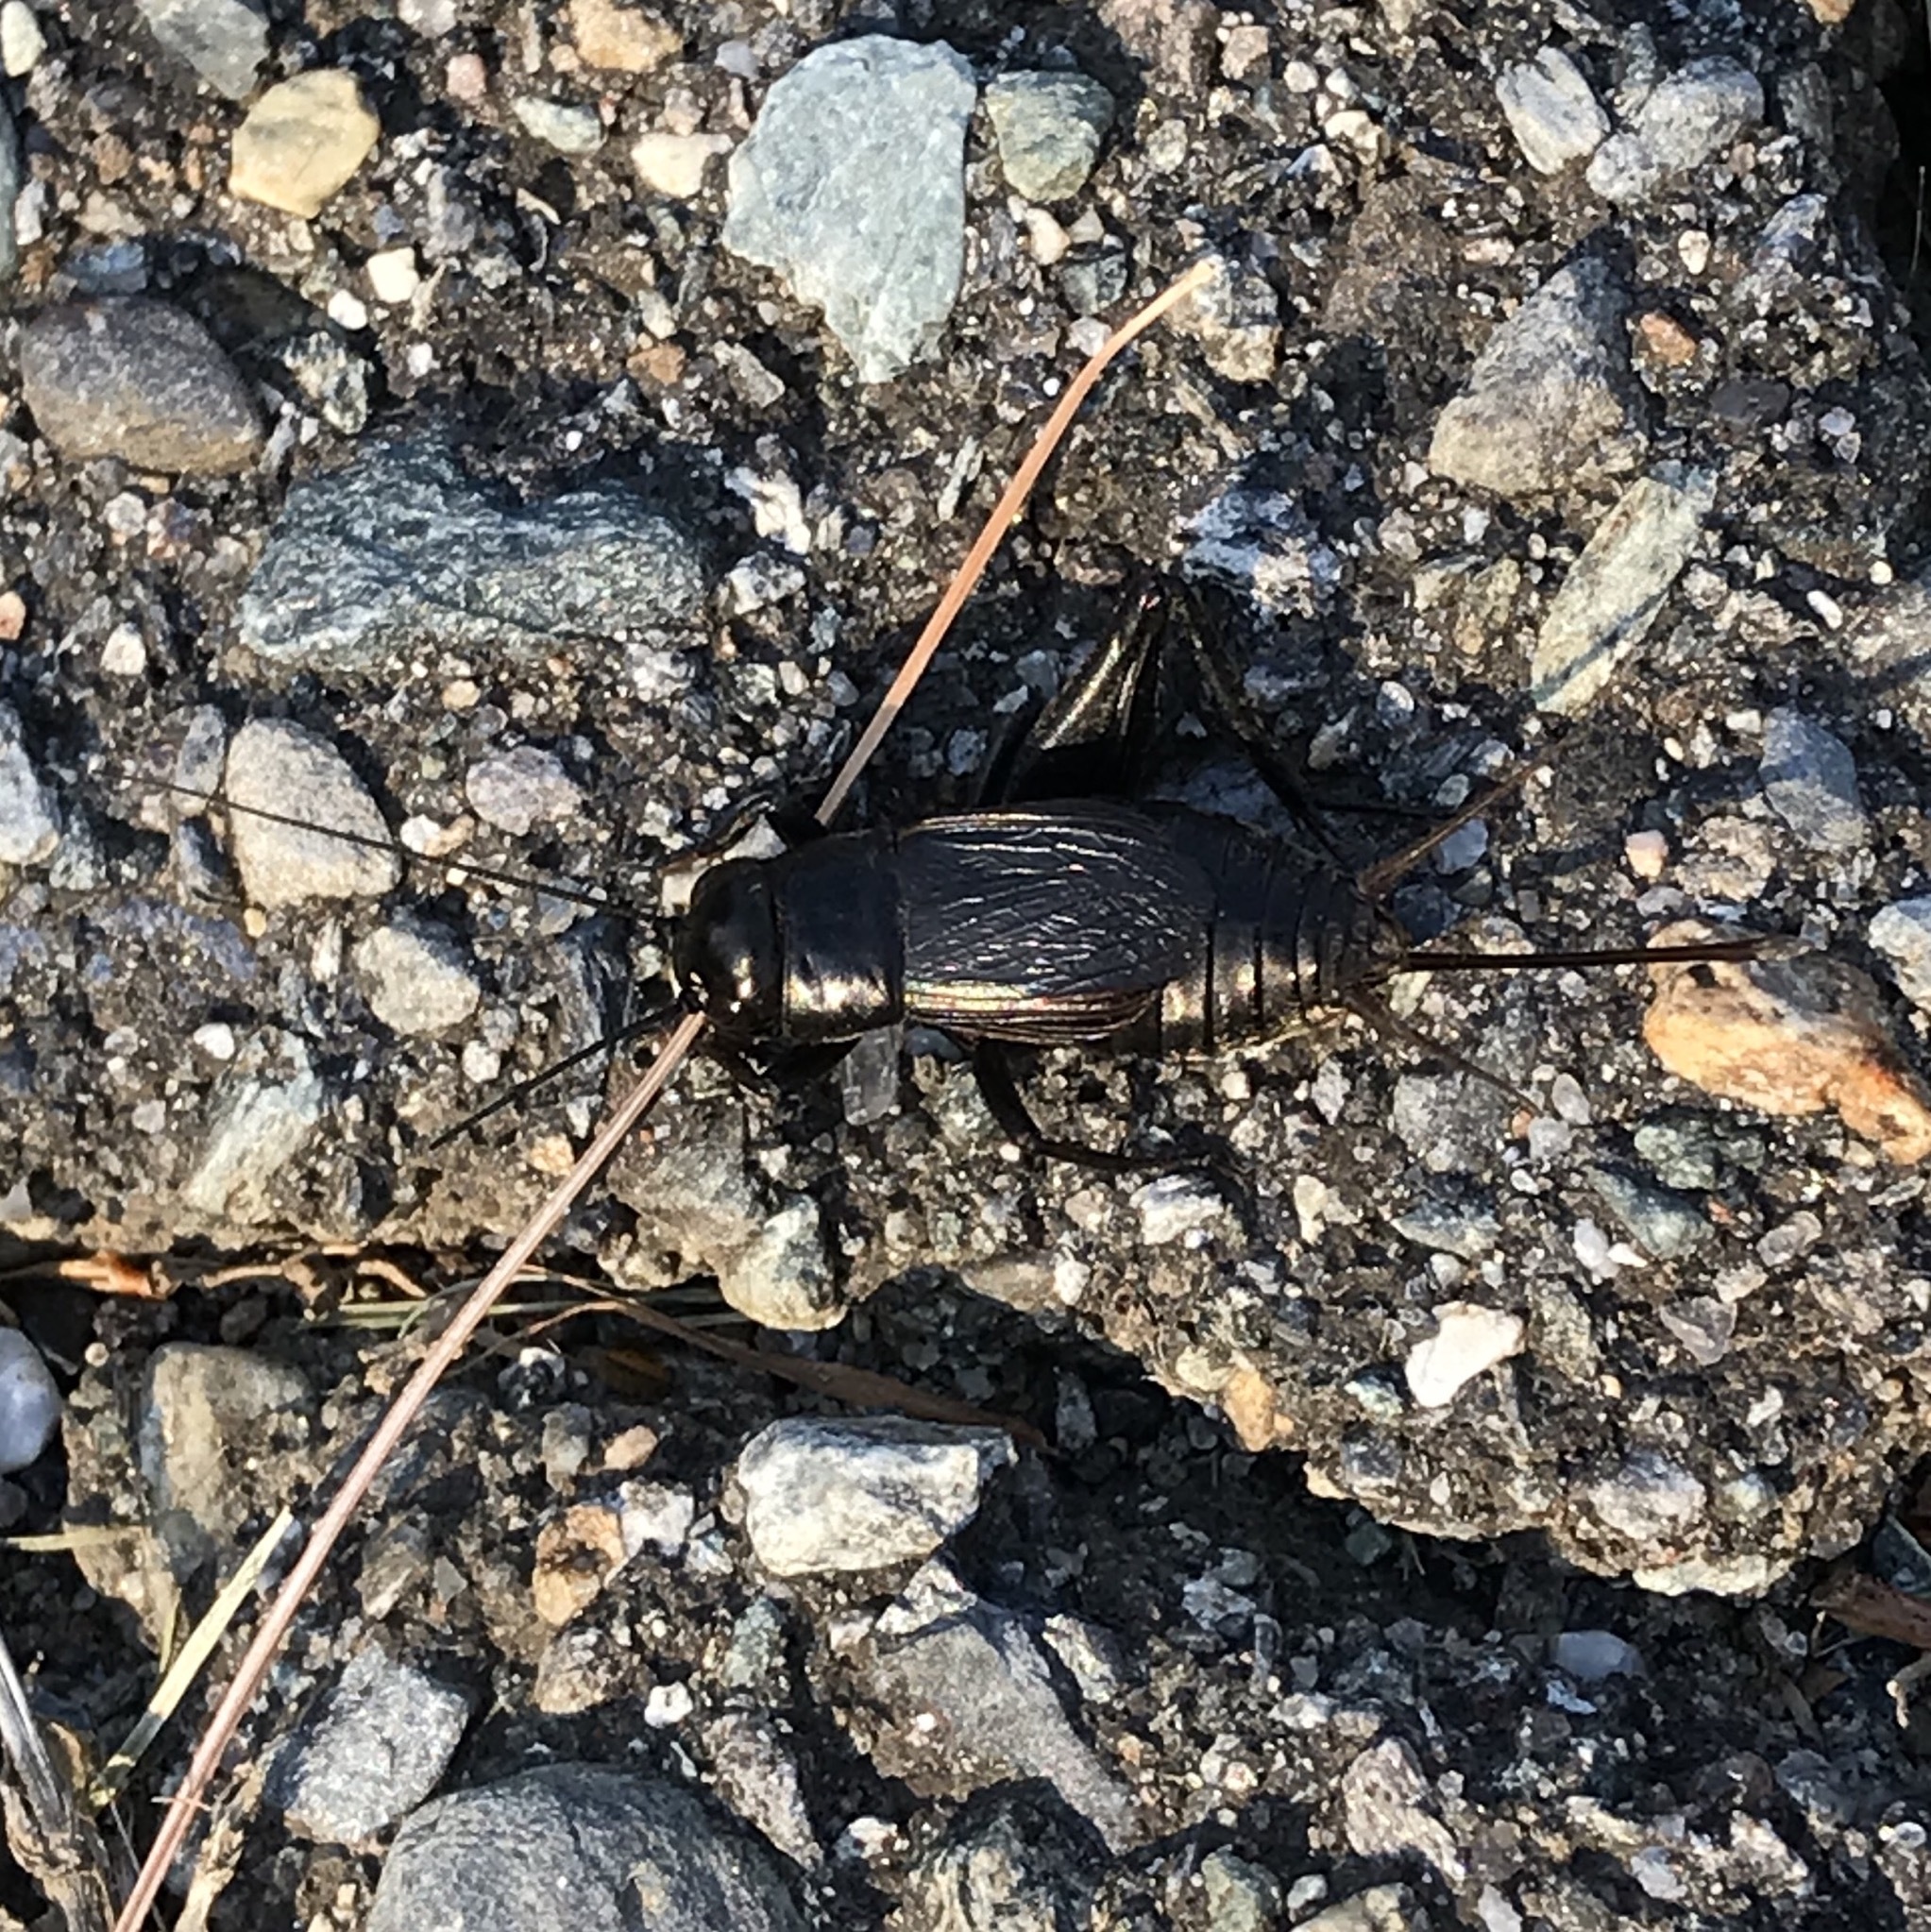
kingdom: Animalia
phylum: Arthropoda
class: Insecta
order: Orthoptera
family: Gryllidae
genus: Gryllus
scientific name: Gryllus pennsylvanicus
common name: Fall field cricket
